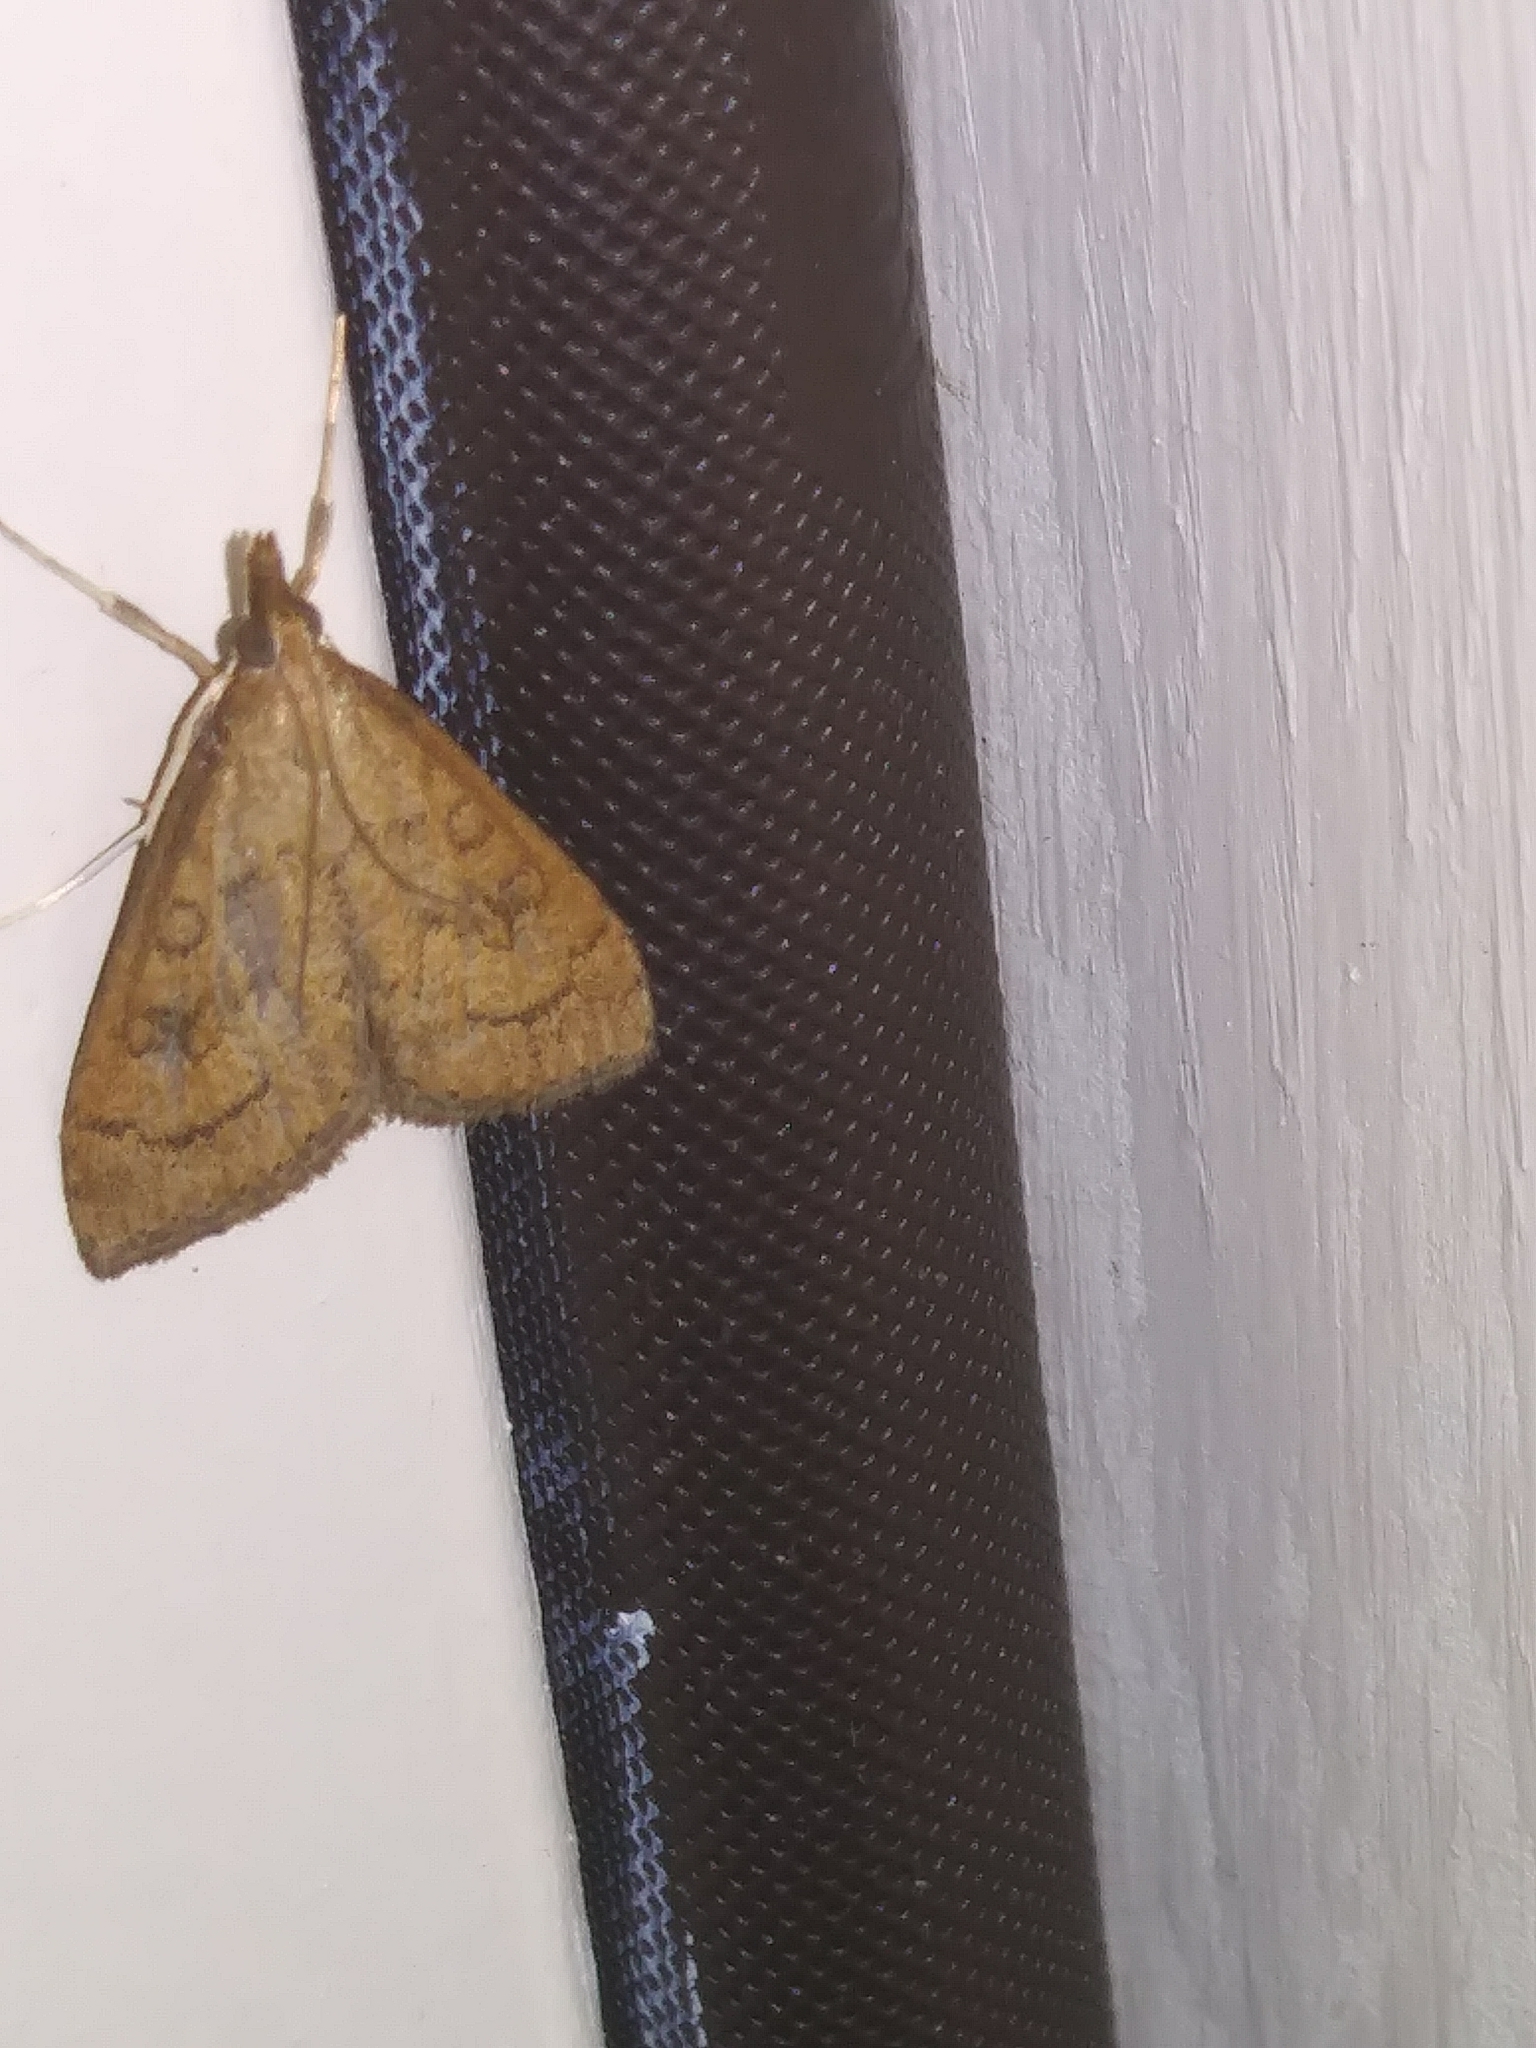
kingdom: Animalia
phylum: Arthropoda
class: Insecta
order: Lepidoptera
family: Crambidae
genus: Udea
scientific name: Udea rubigalis
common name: Celery leaftier moth
